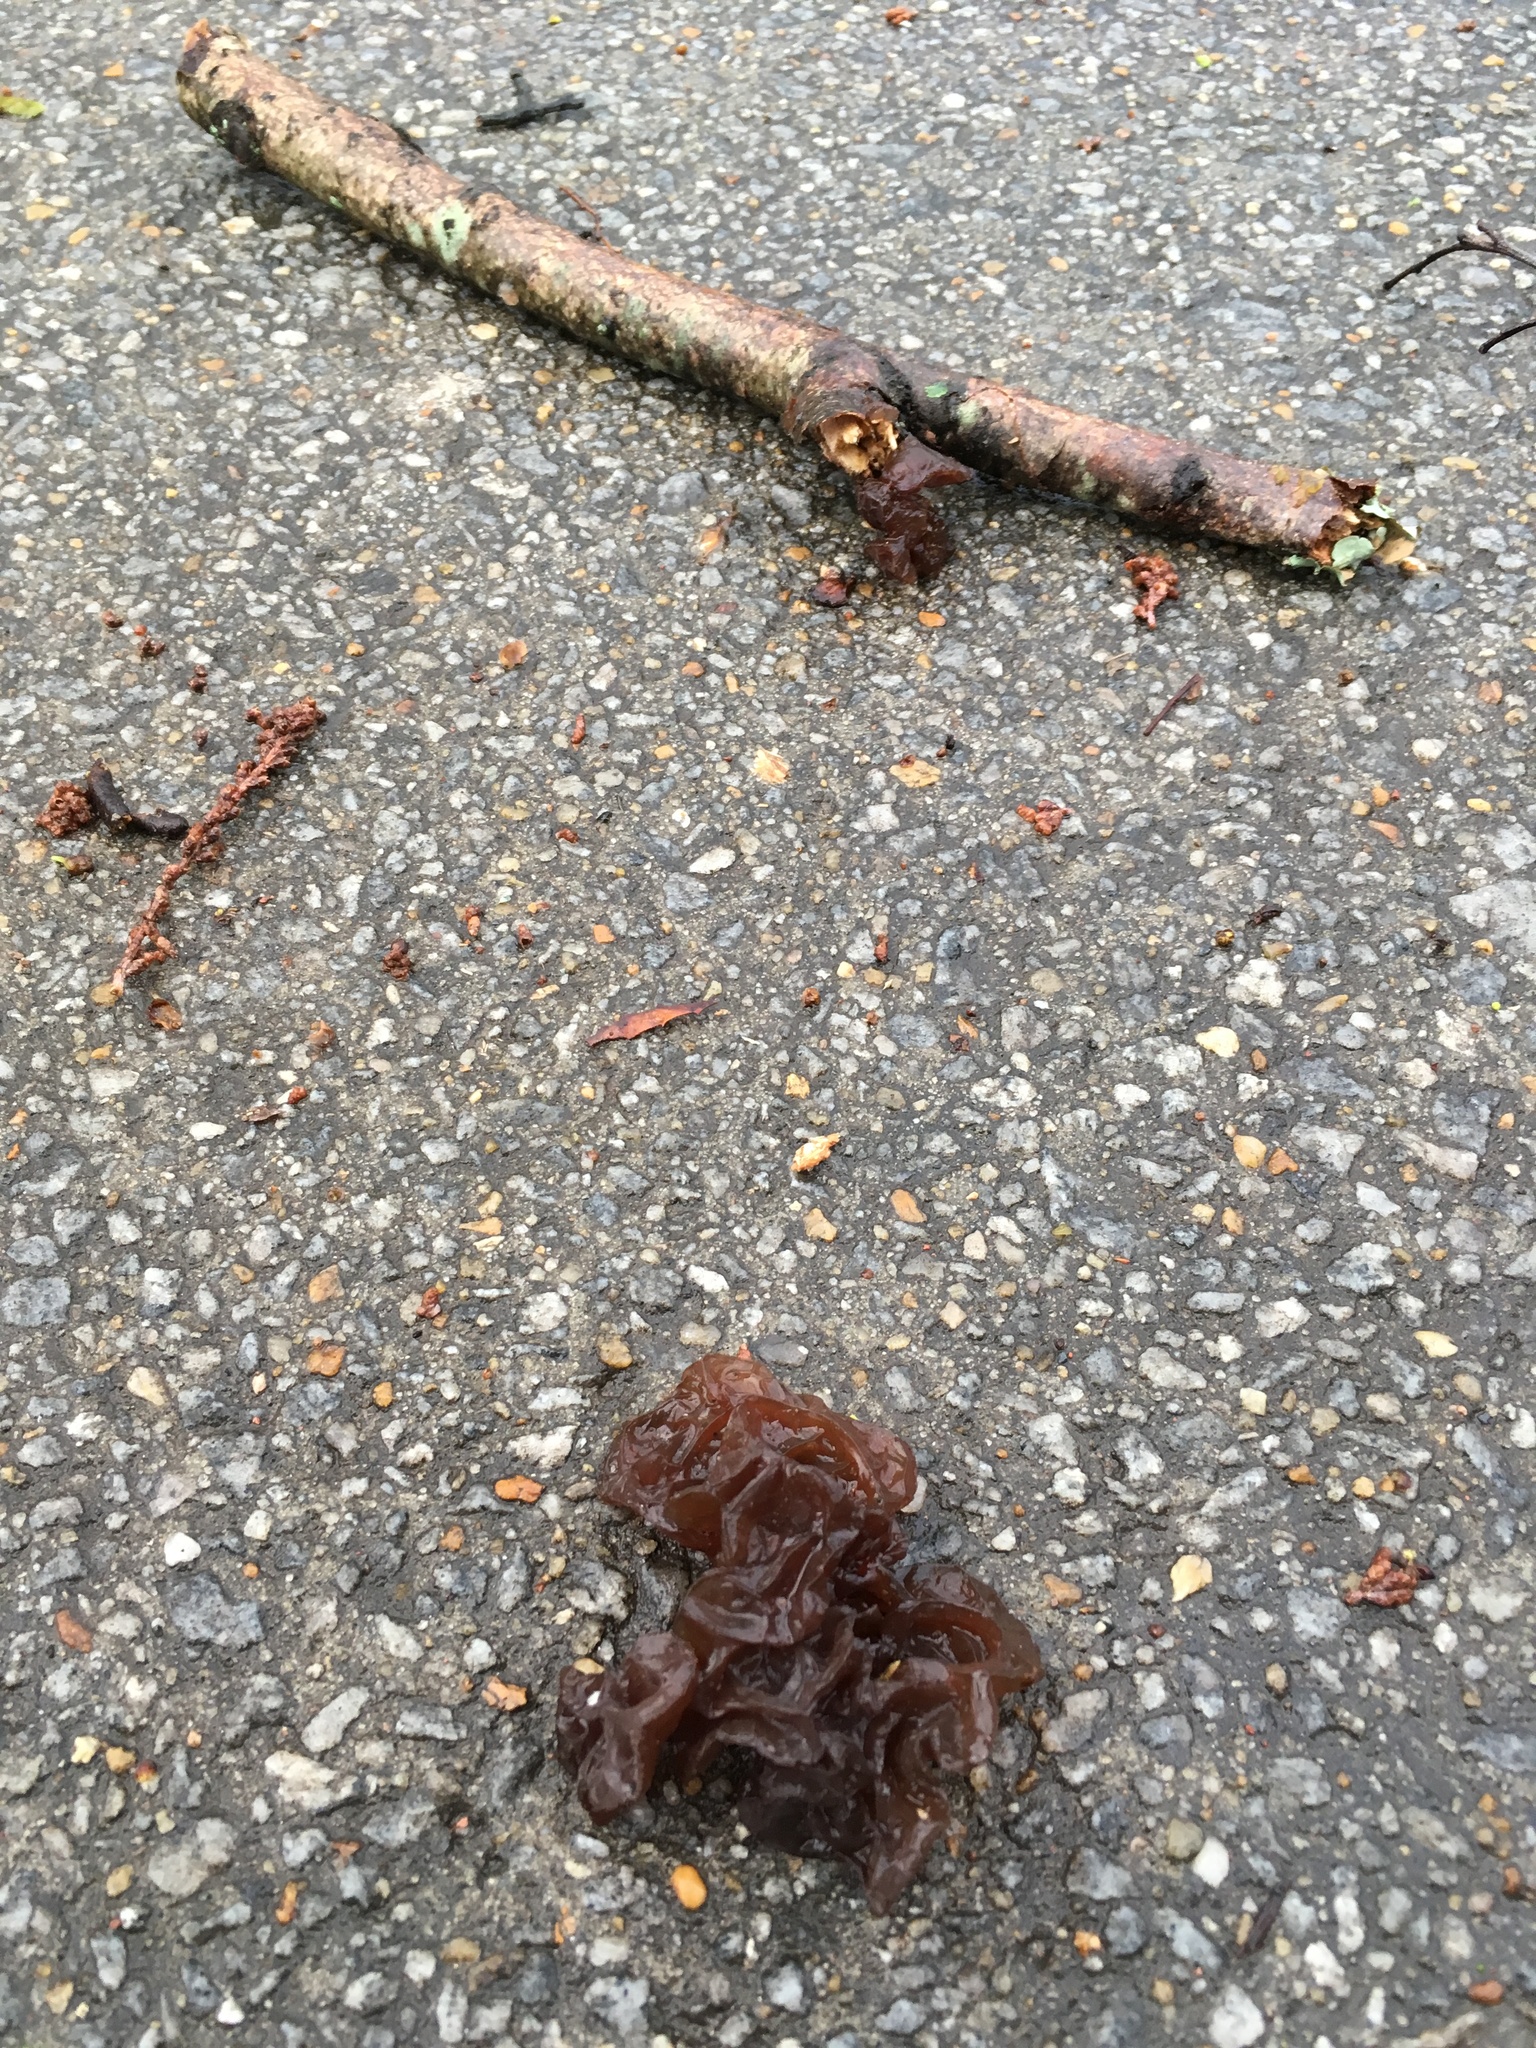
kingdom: Fungi
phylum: Basidiomycota
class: Agaricomycetes
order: Auriculariales
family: Auriculariaceae
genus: Exidia
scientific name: Exidia
